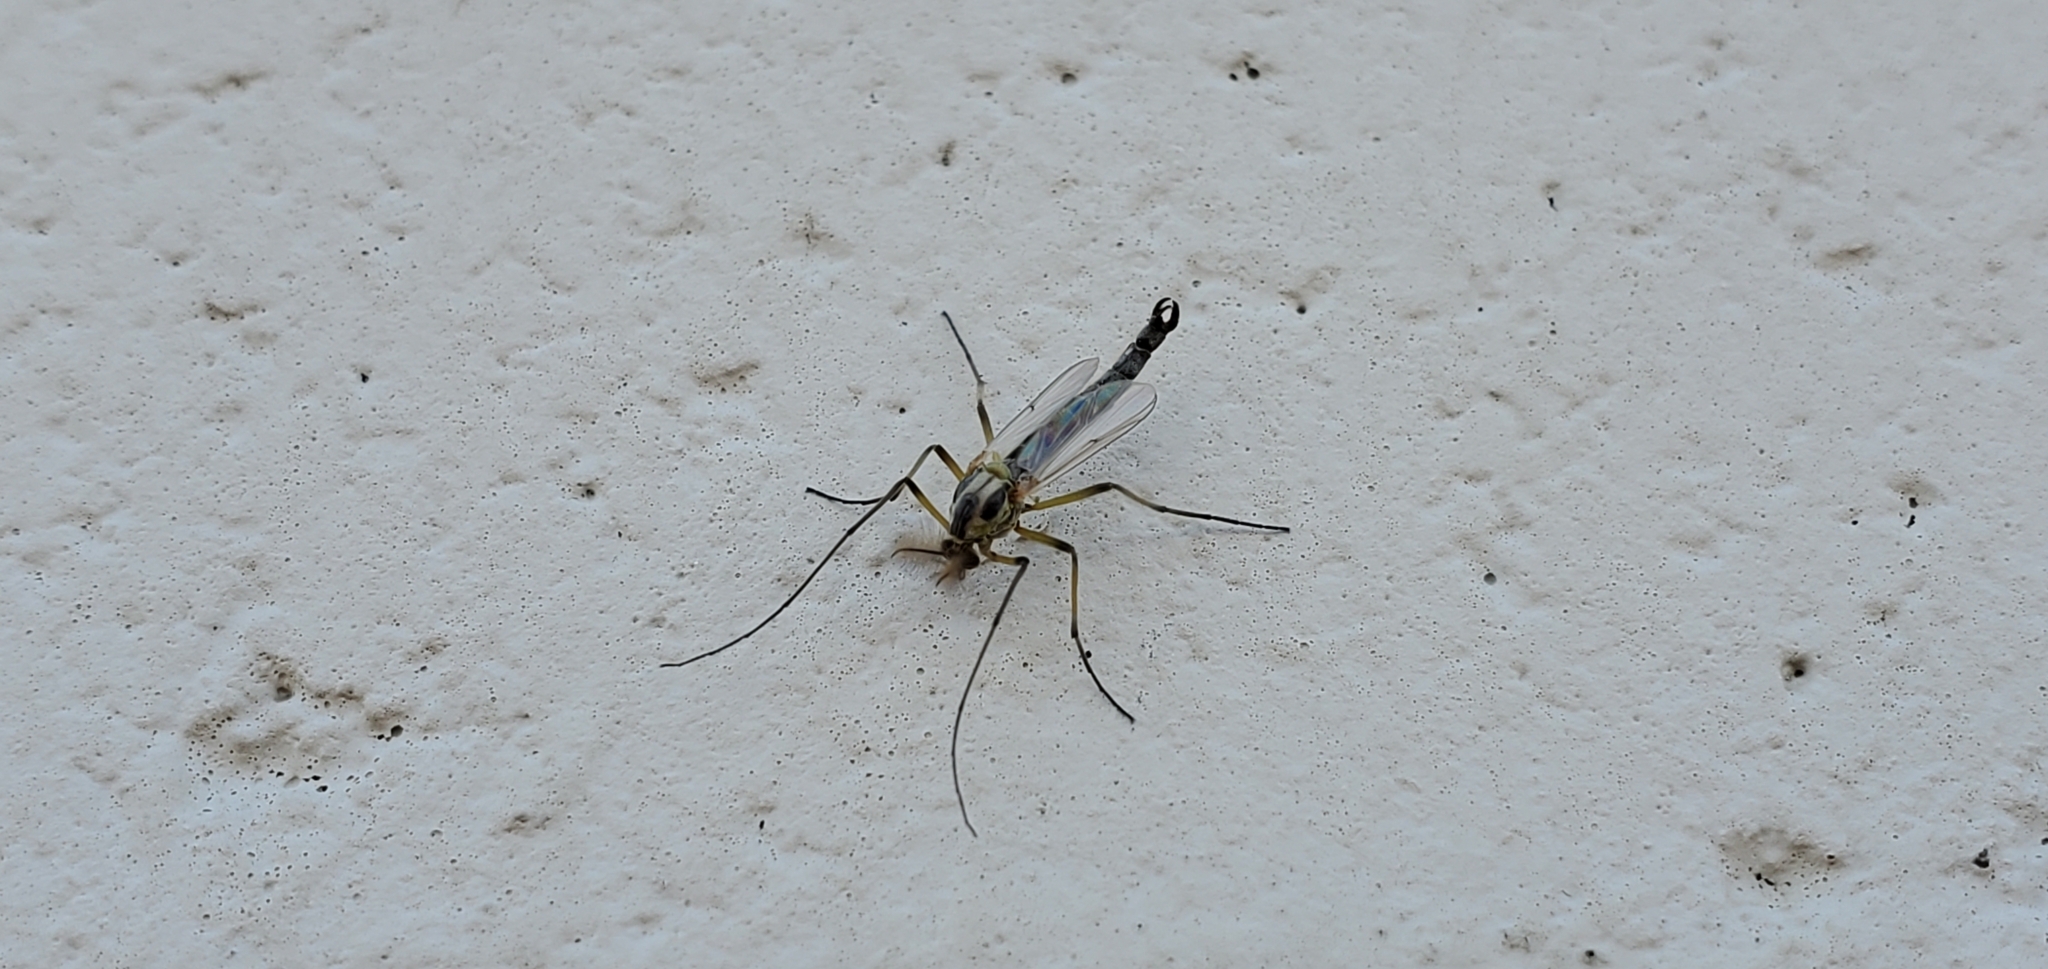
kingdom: Animalia
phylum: Arthropoda
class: Insecta
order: Diptera
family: Chironomidae
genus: Chironomus
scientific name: Chironomus dilutus
